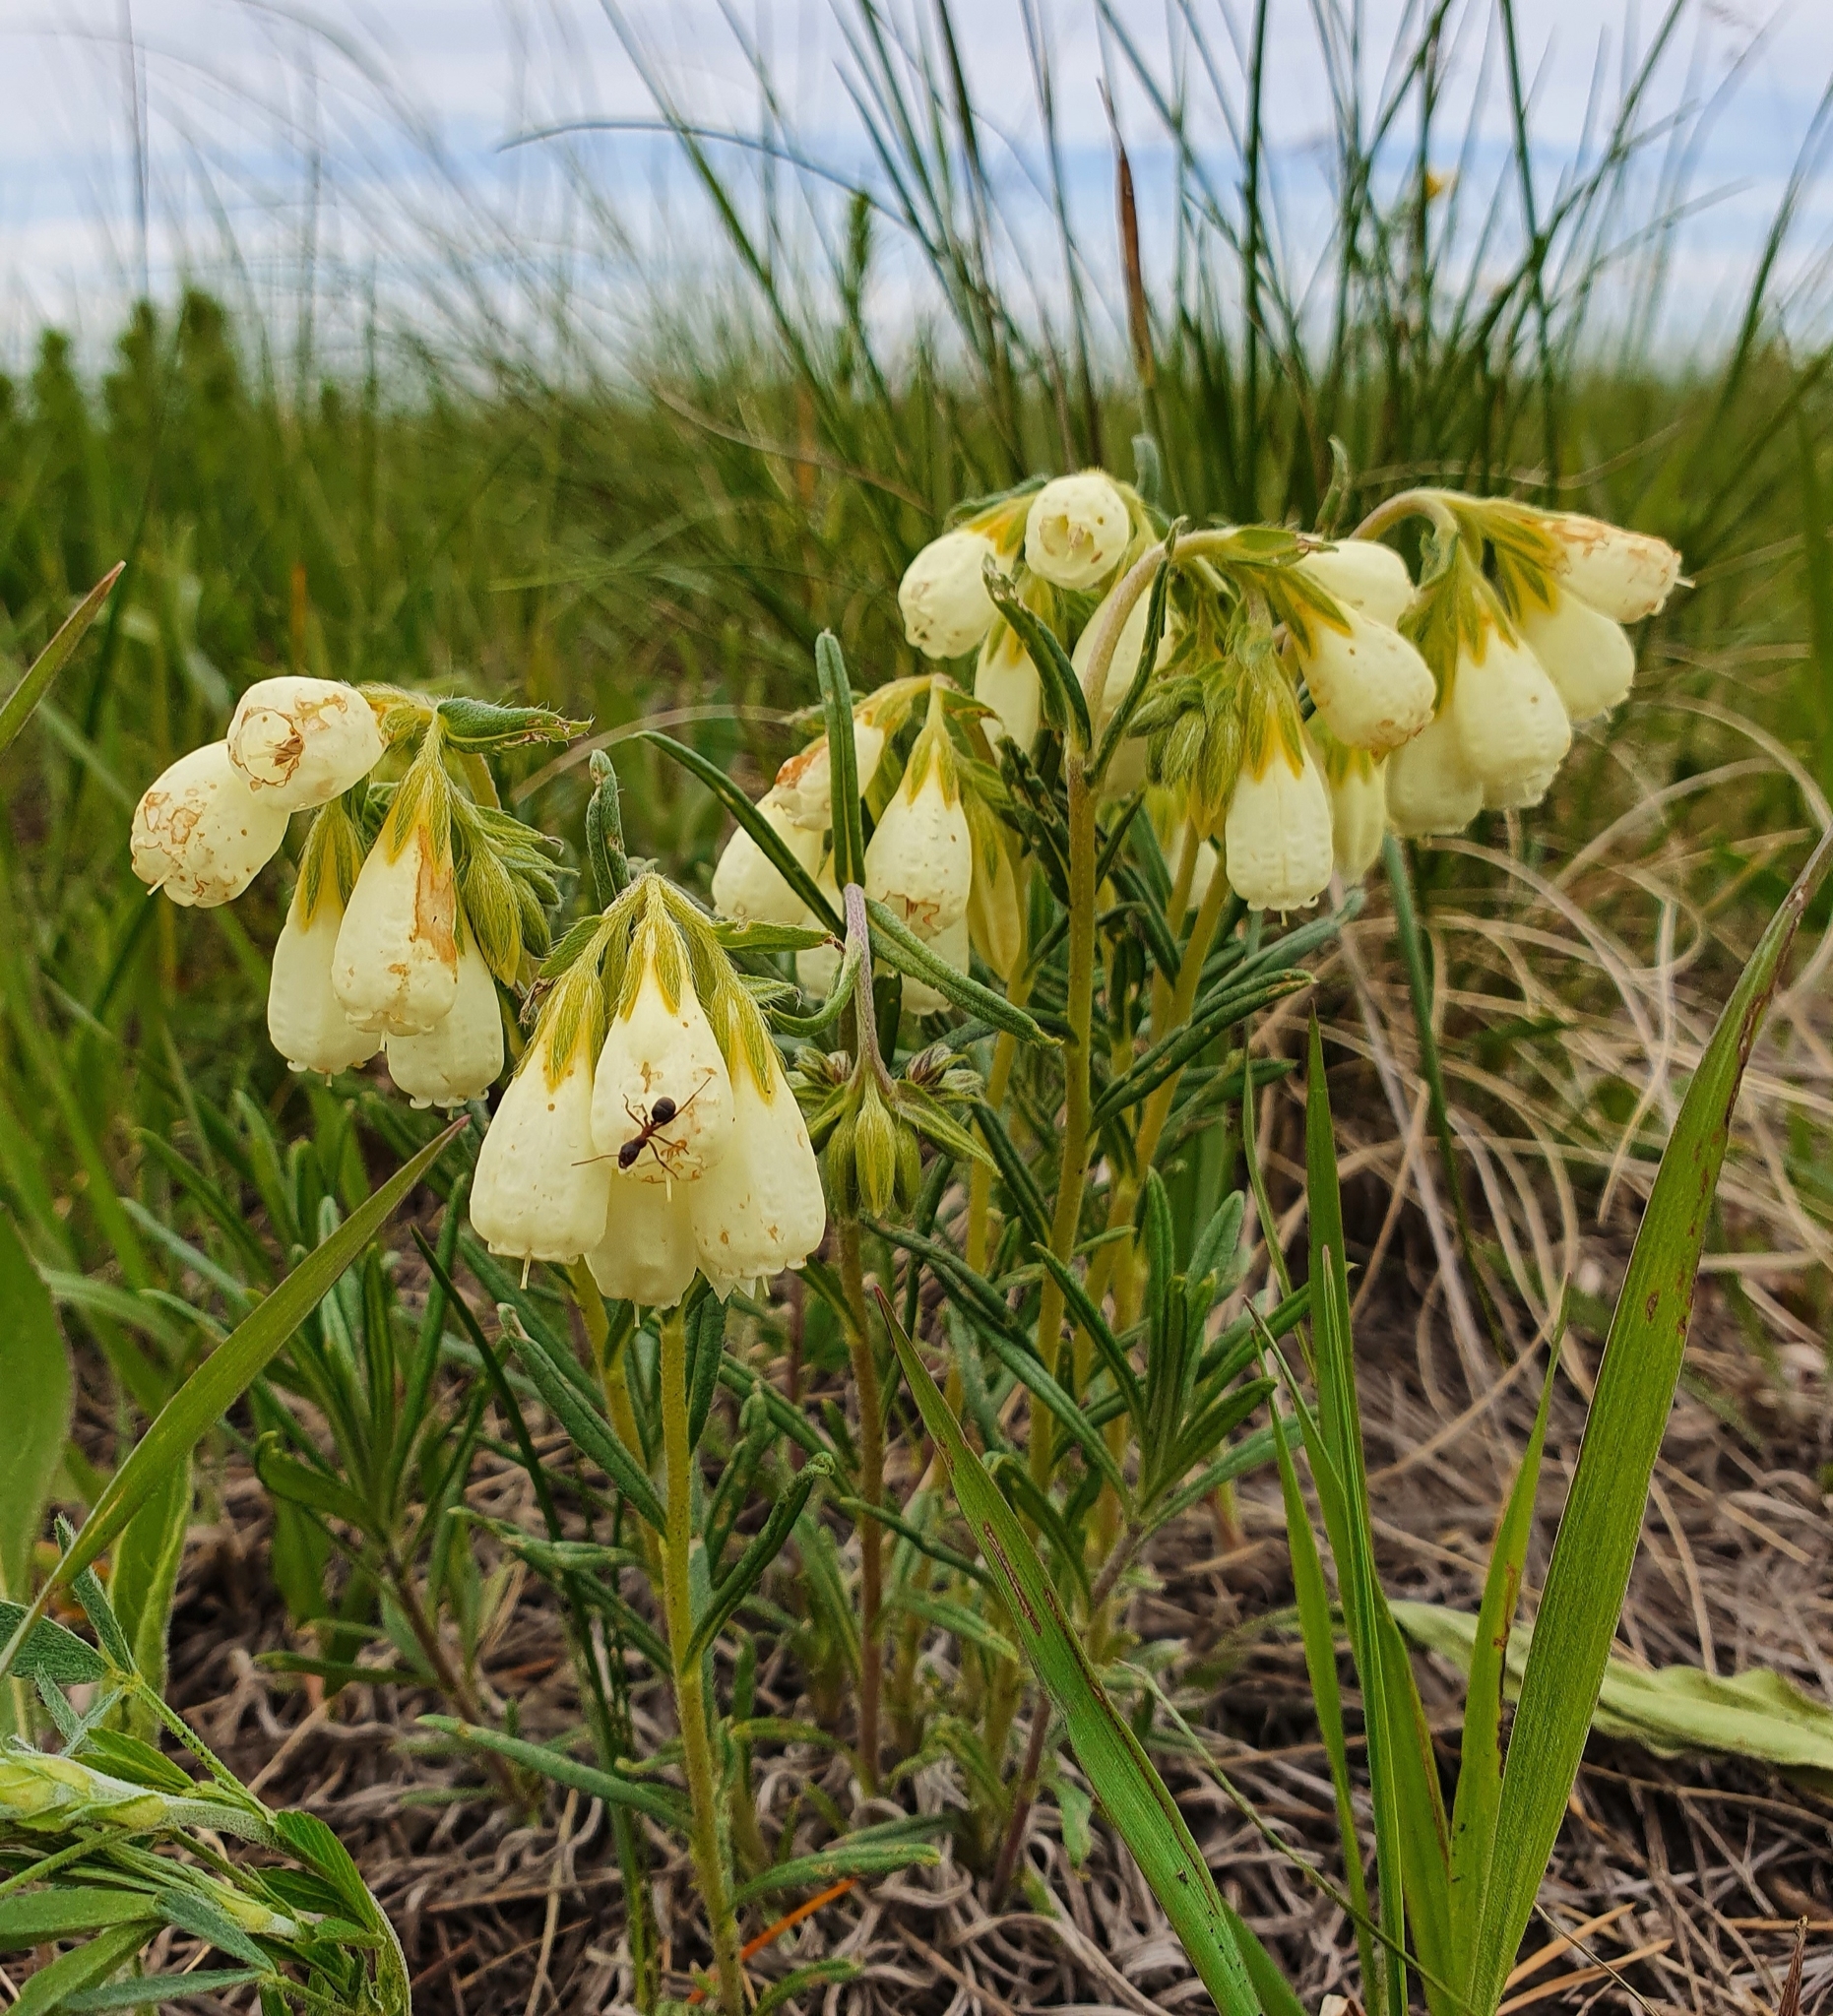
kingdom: Plantae
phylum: Tracheophyta
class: Magnoliopsida
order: Boraginales
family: Boraginaceae
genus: Onosma
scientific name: Onosma simplicissima
